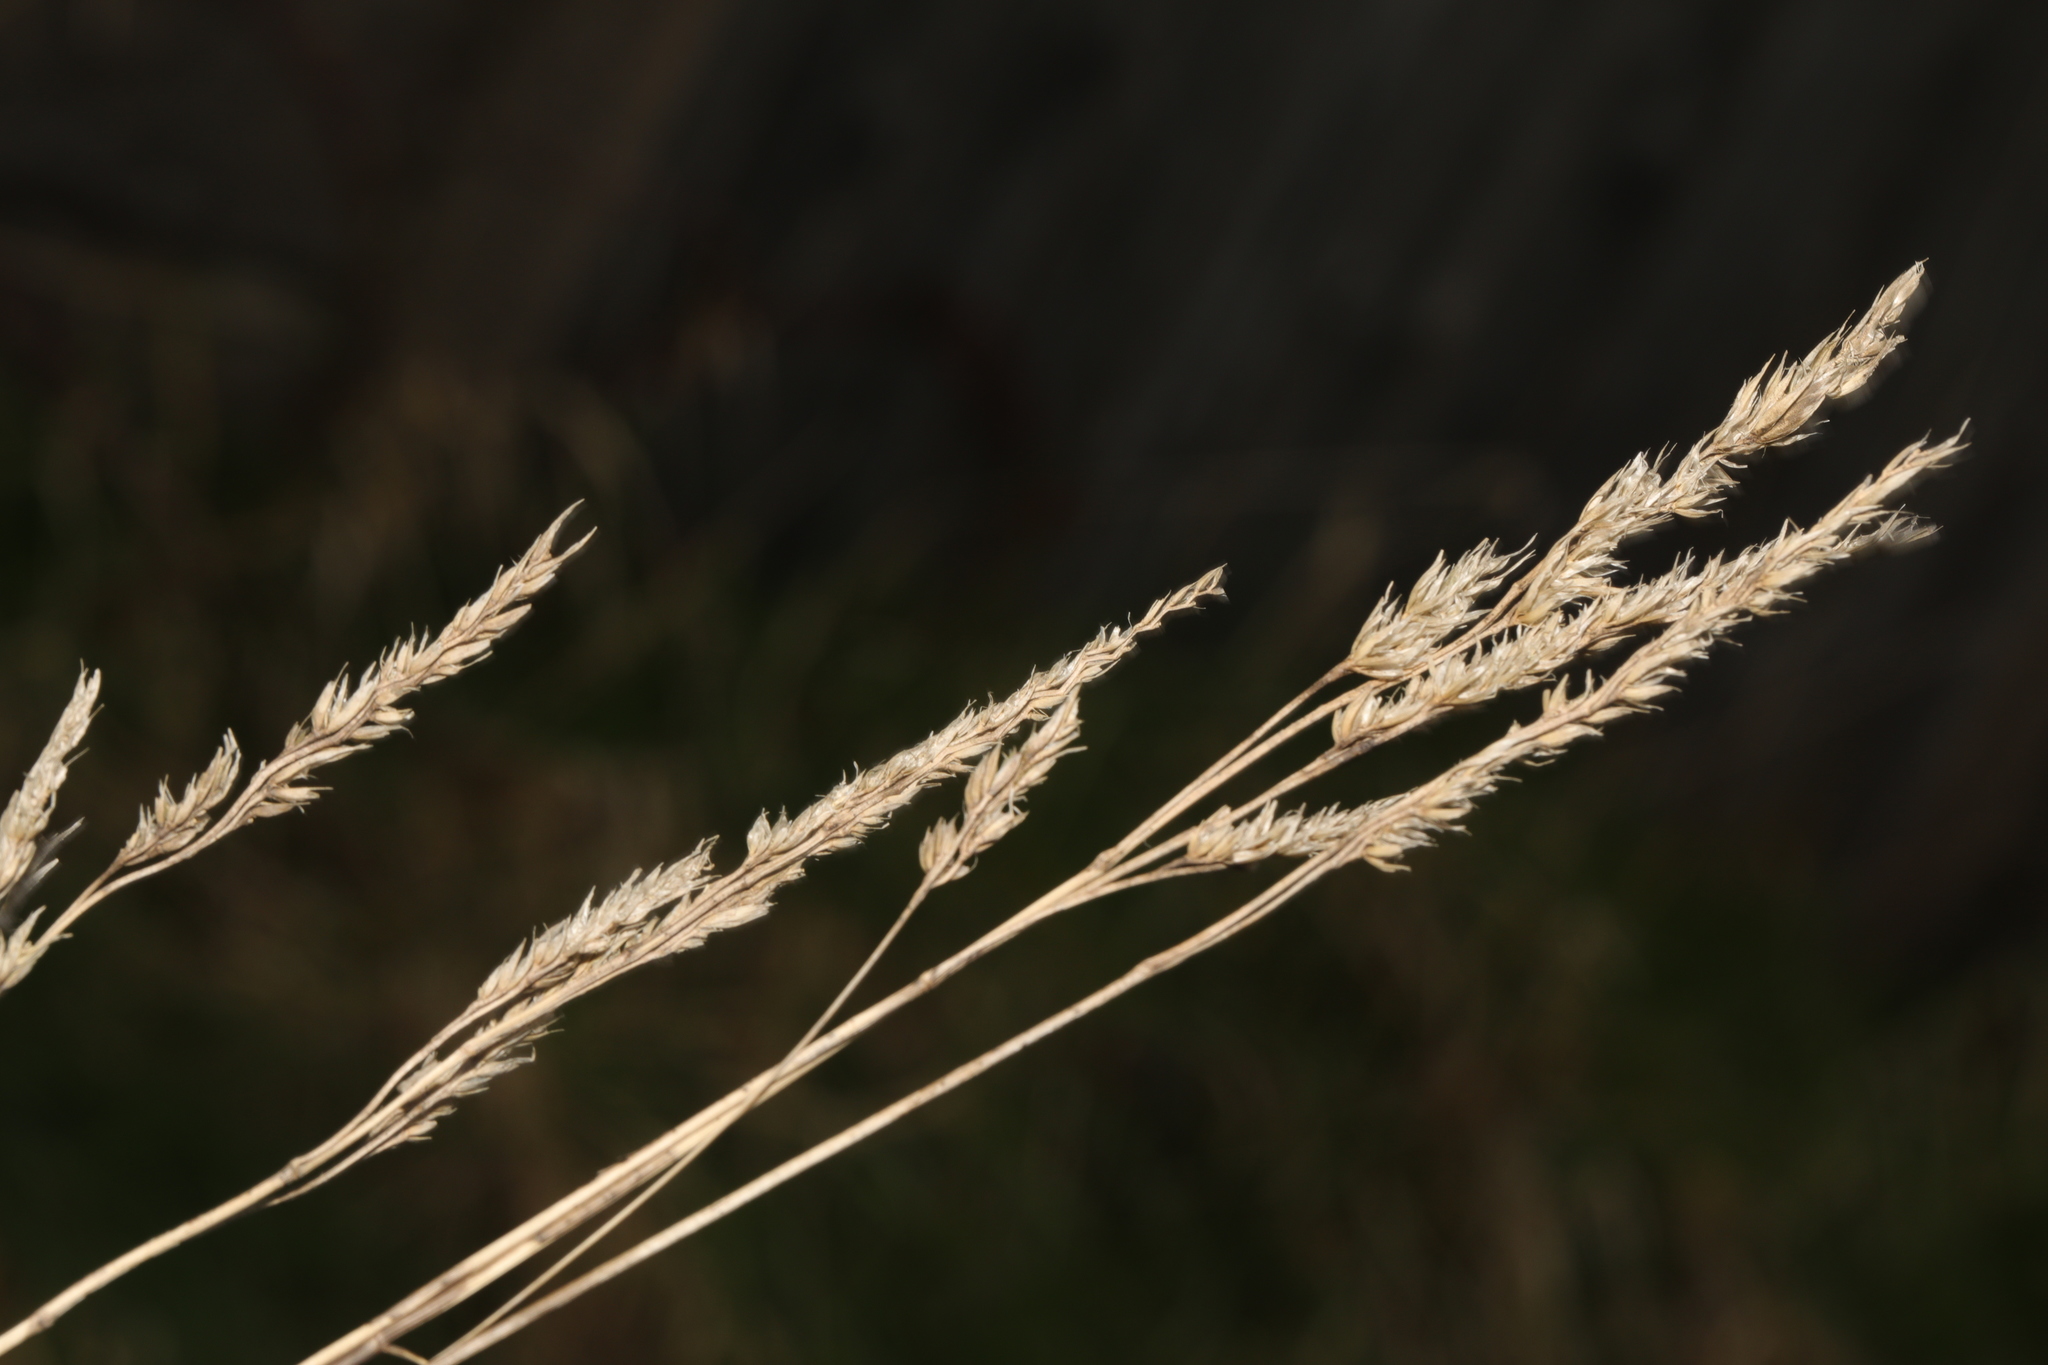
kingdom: Plantae
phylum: Tracheophyta
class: Liliopsida
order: Poales
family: Poaceae
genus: Dactylis
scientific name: Dactylis glomerata
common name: Orchardgrass
